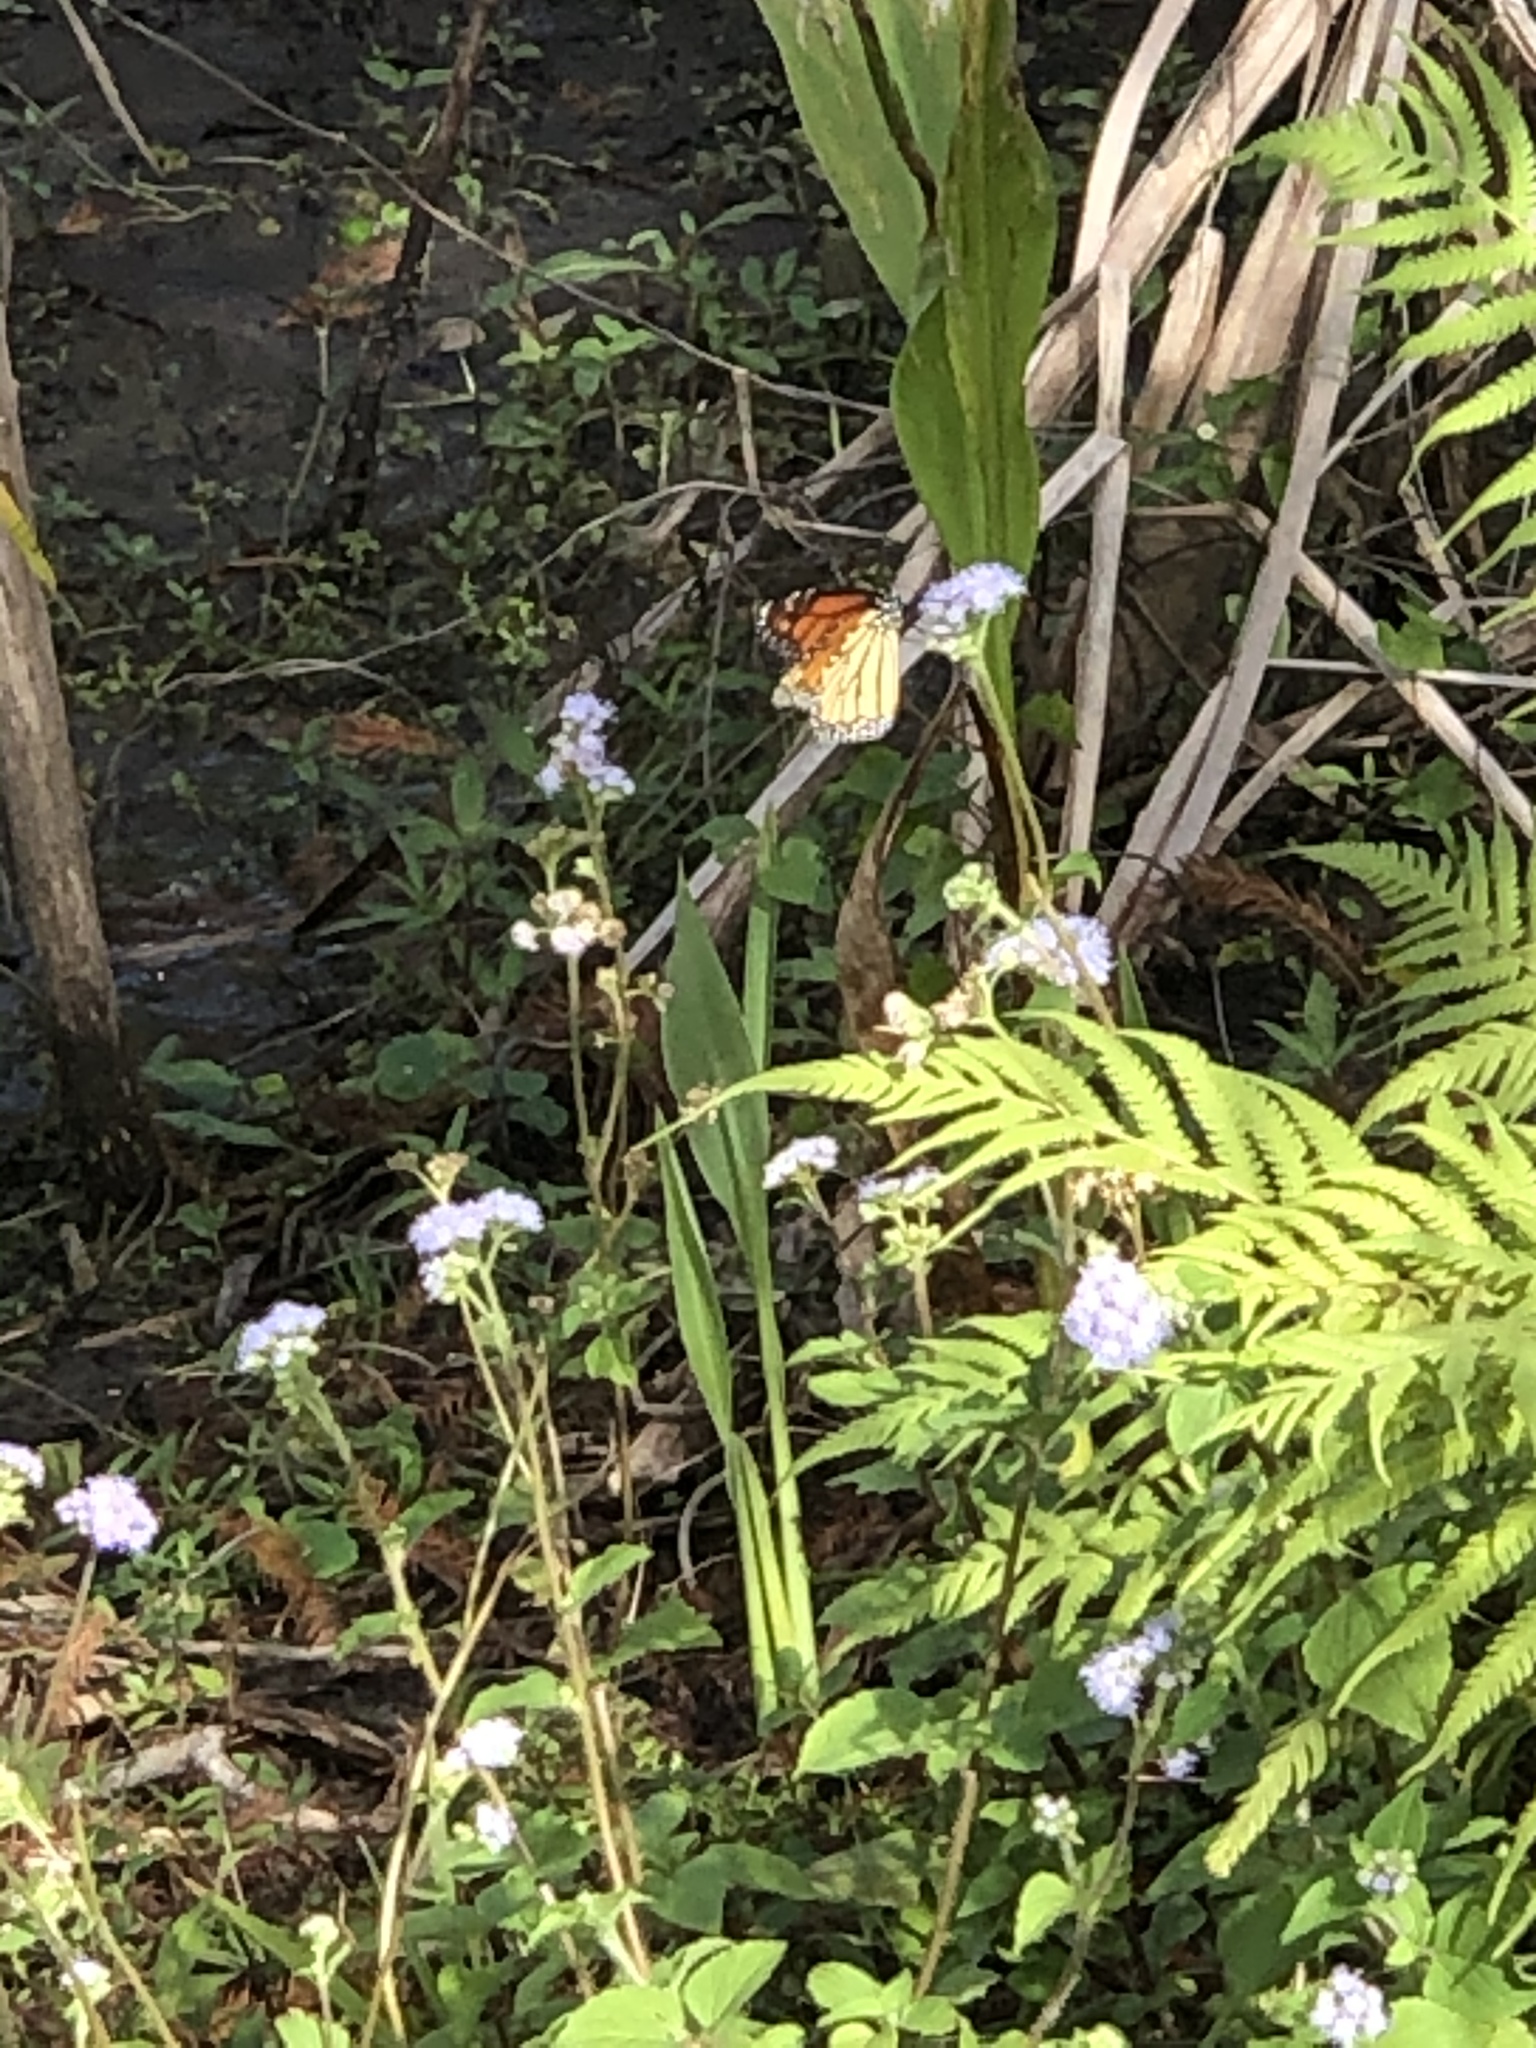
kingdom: Animalia
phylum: Arthropoda
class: Insecta
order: Lepidoptera
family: Nymphalidae
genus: Danaus
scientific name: Danaus plexippus
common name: Monarch
